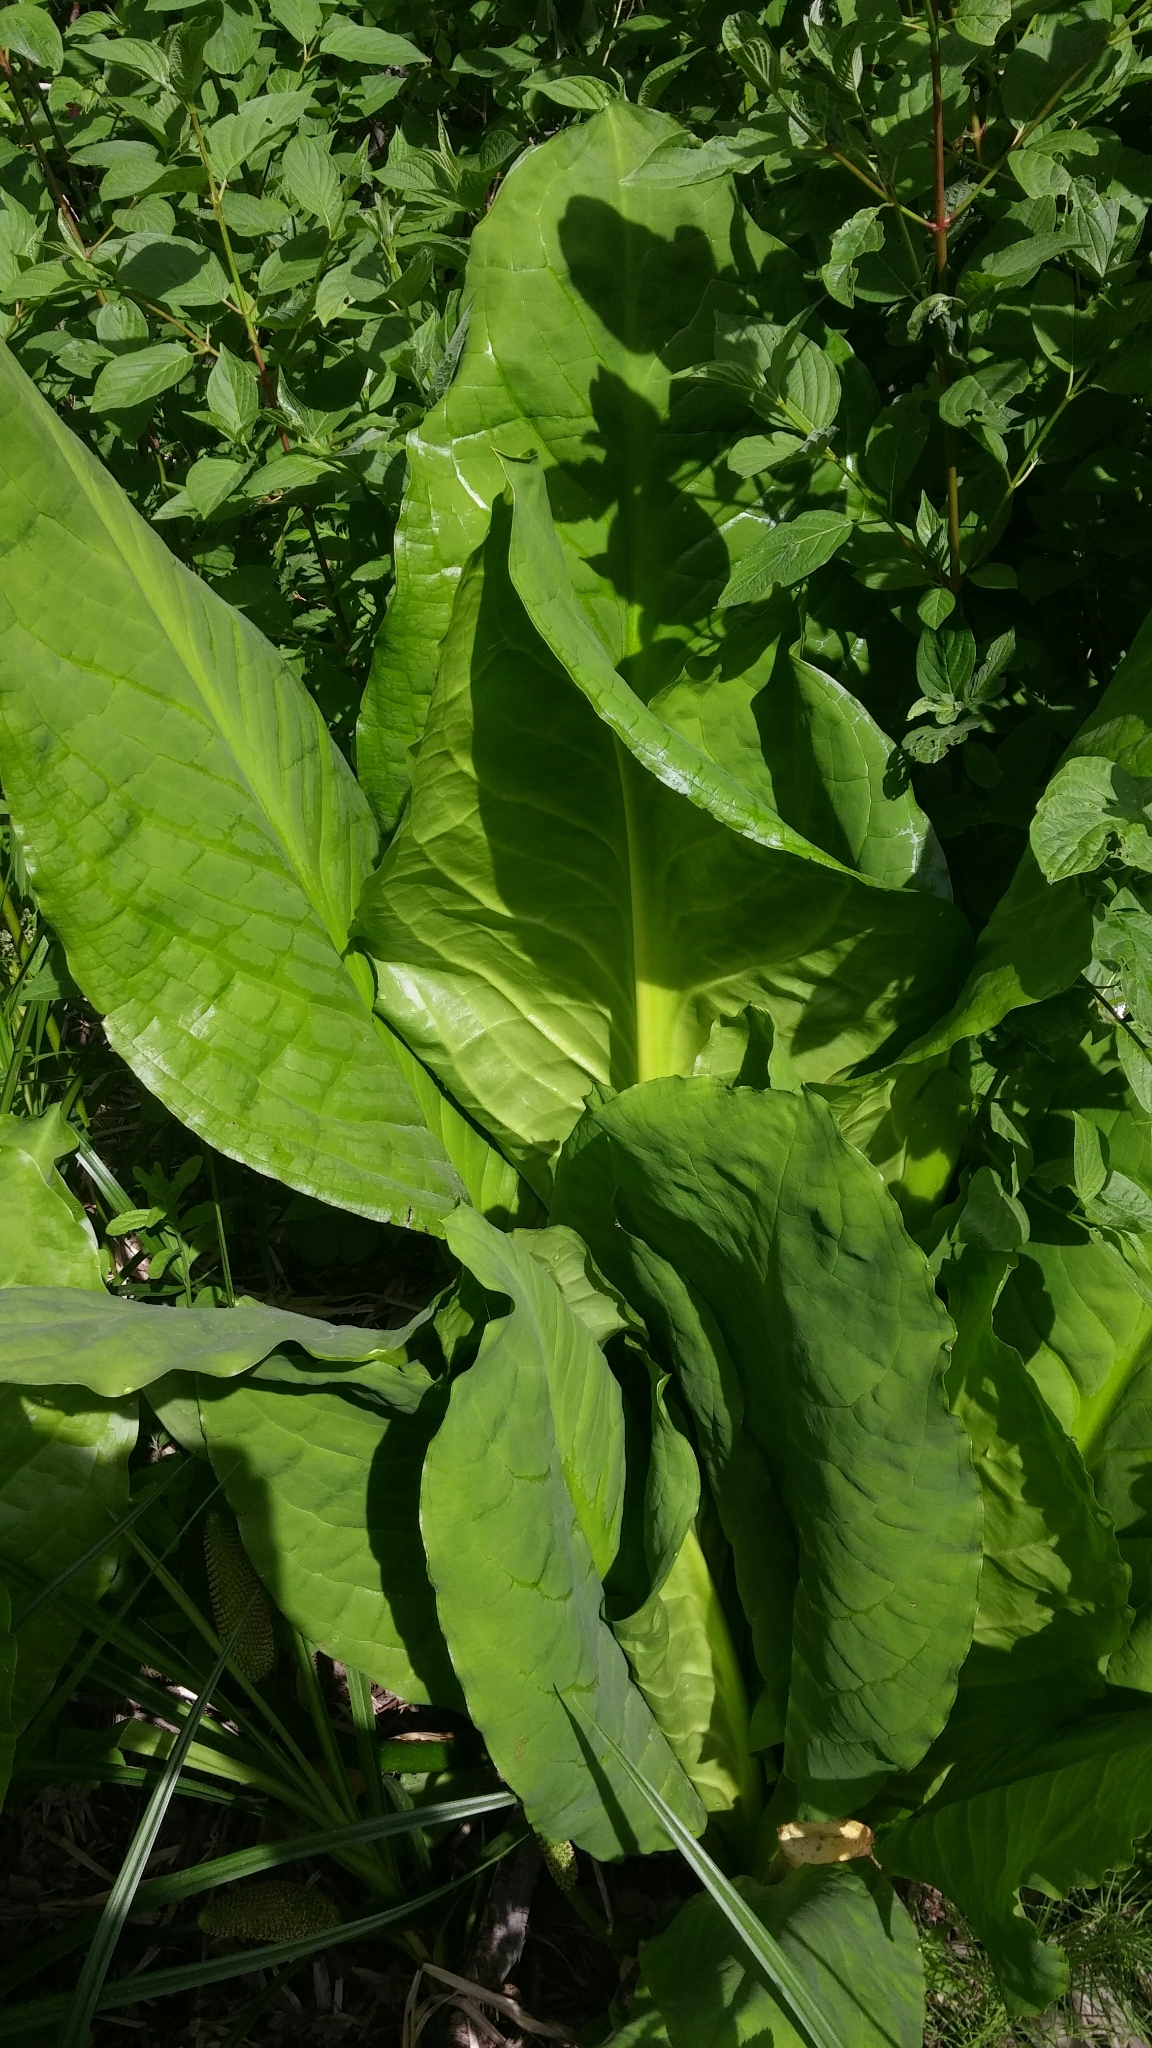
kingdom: Plantae
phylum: Tracheophyta
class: Liliopsida
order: Alismatales
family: Araceae
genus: Lysichiton
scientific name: Lysichiton americanus
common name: American skunk cabbage
